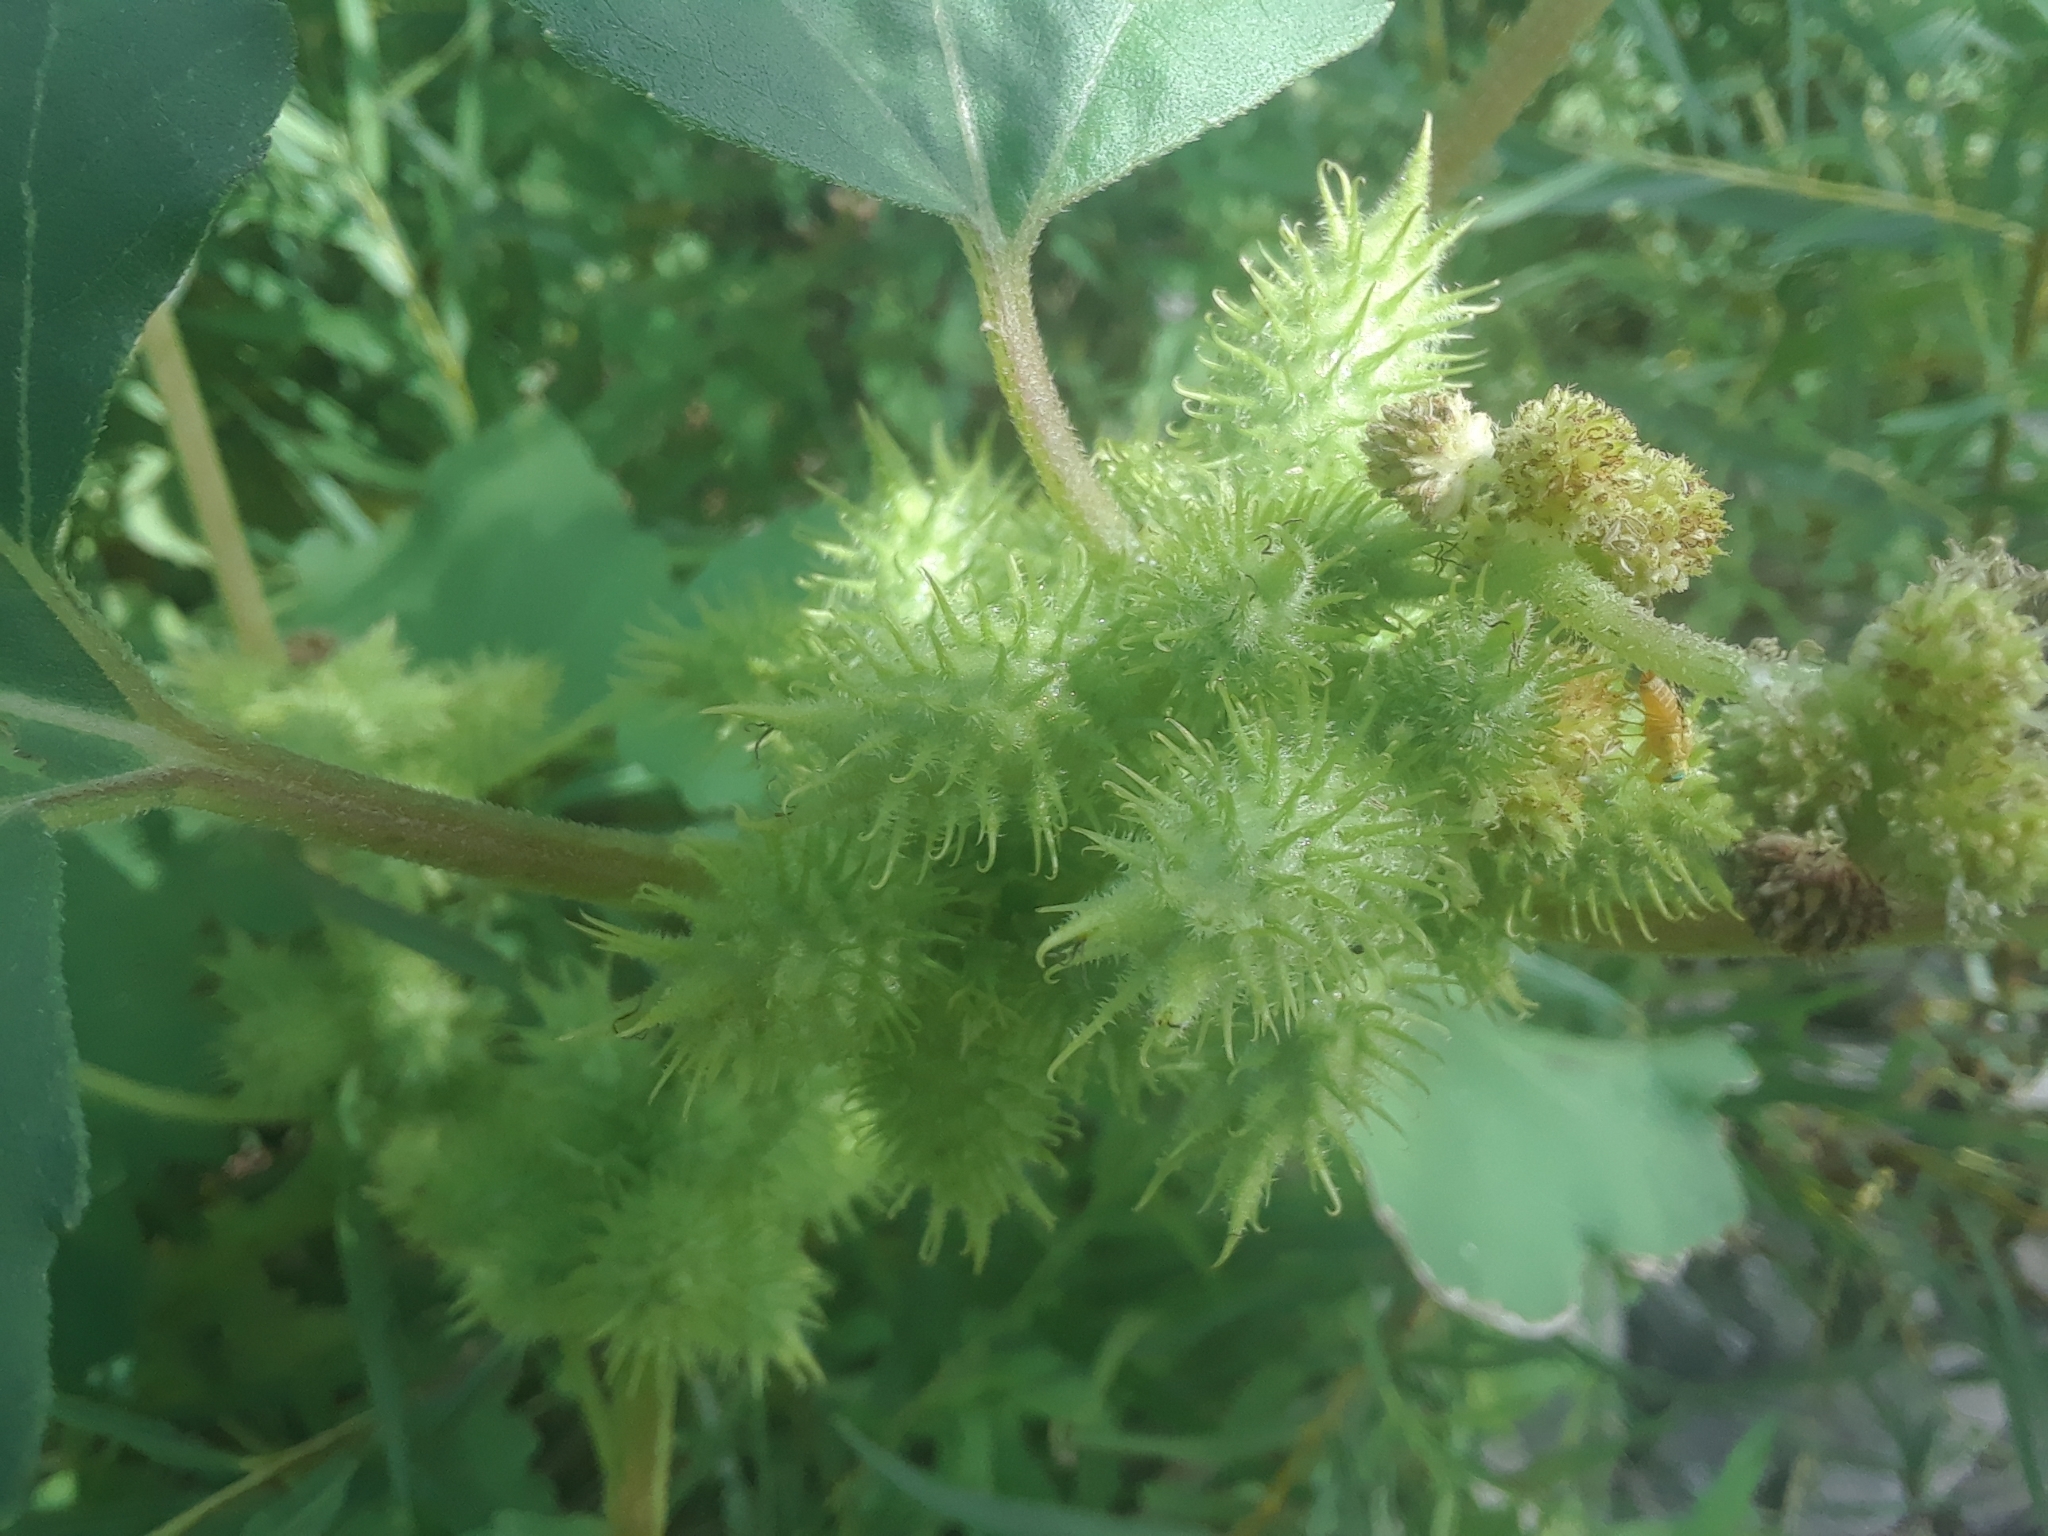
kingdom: Plantae
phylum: Tracheophyta
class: Magnoliopsida
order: Asterales
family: Asteraceae
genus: Xanthium
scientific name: Xanthium strumarium
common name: Rough cocklebur
